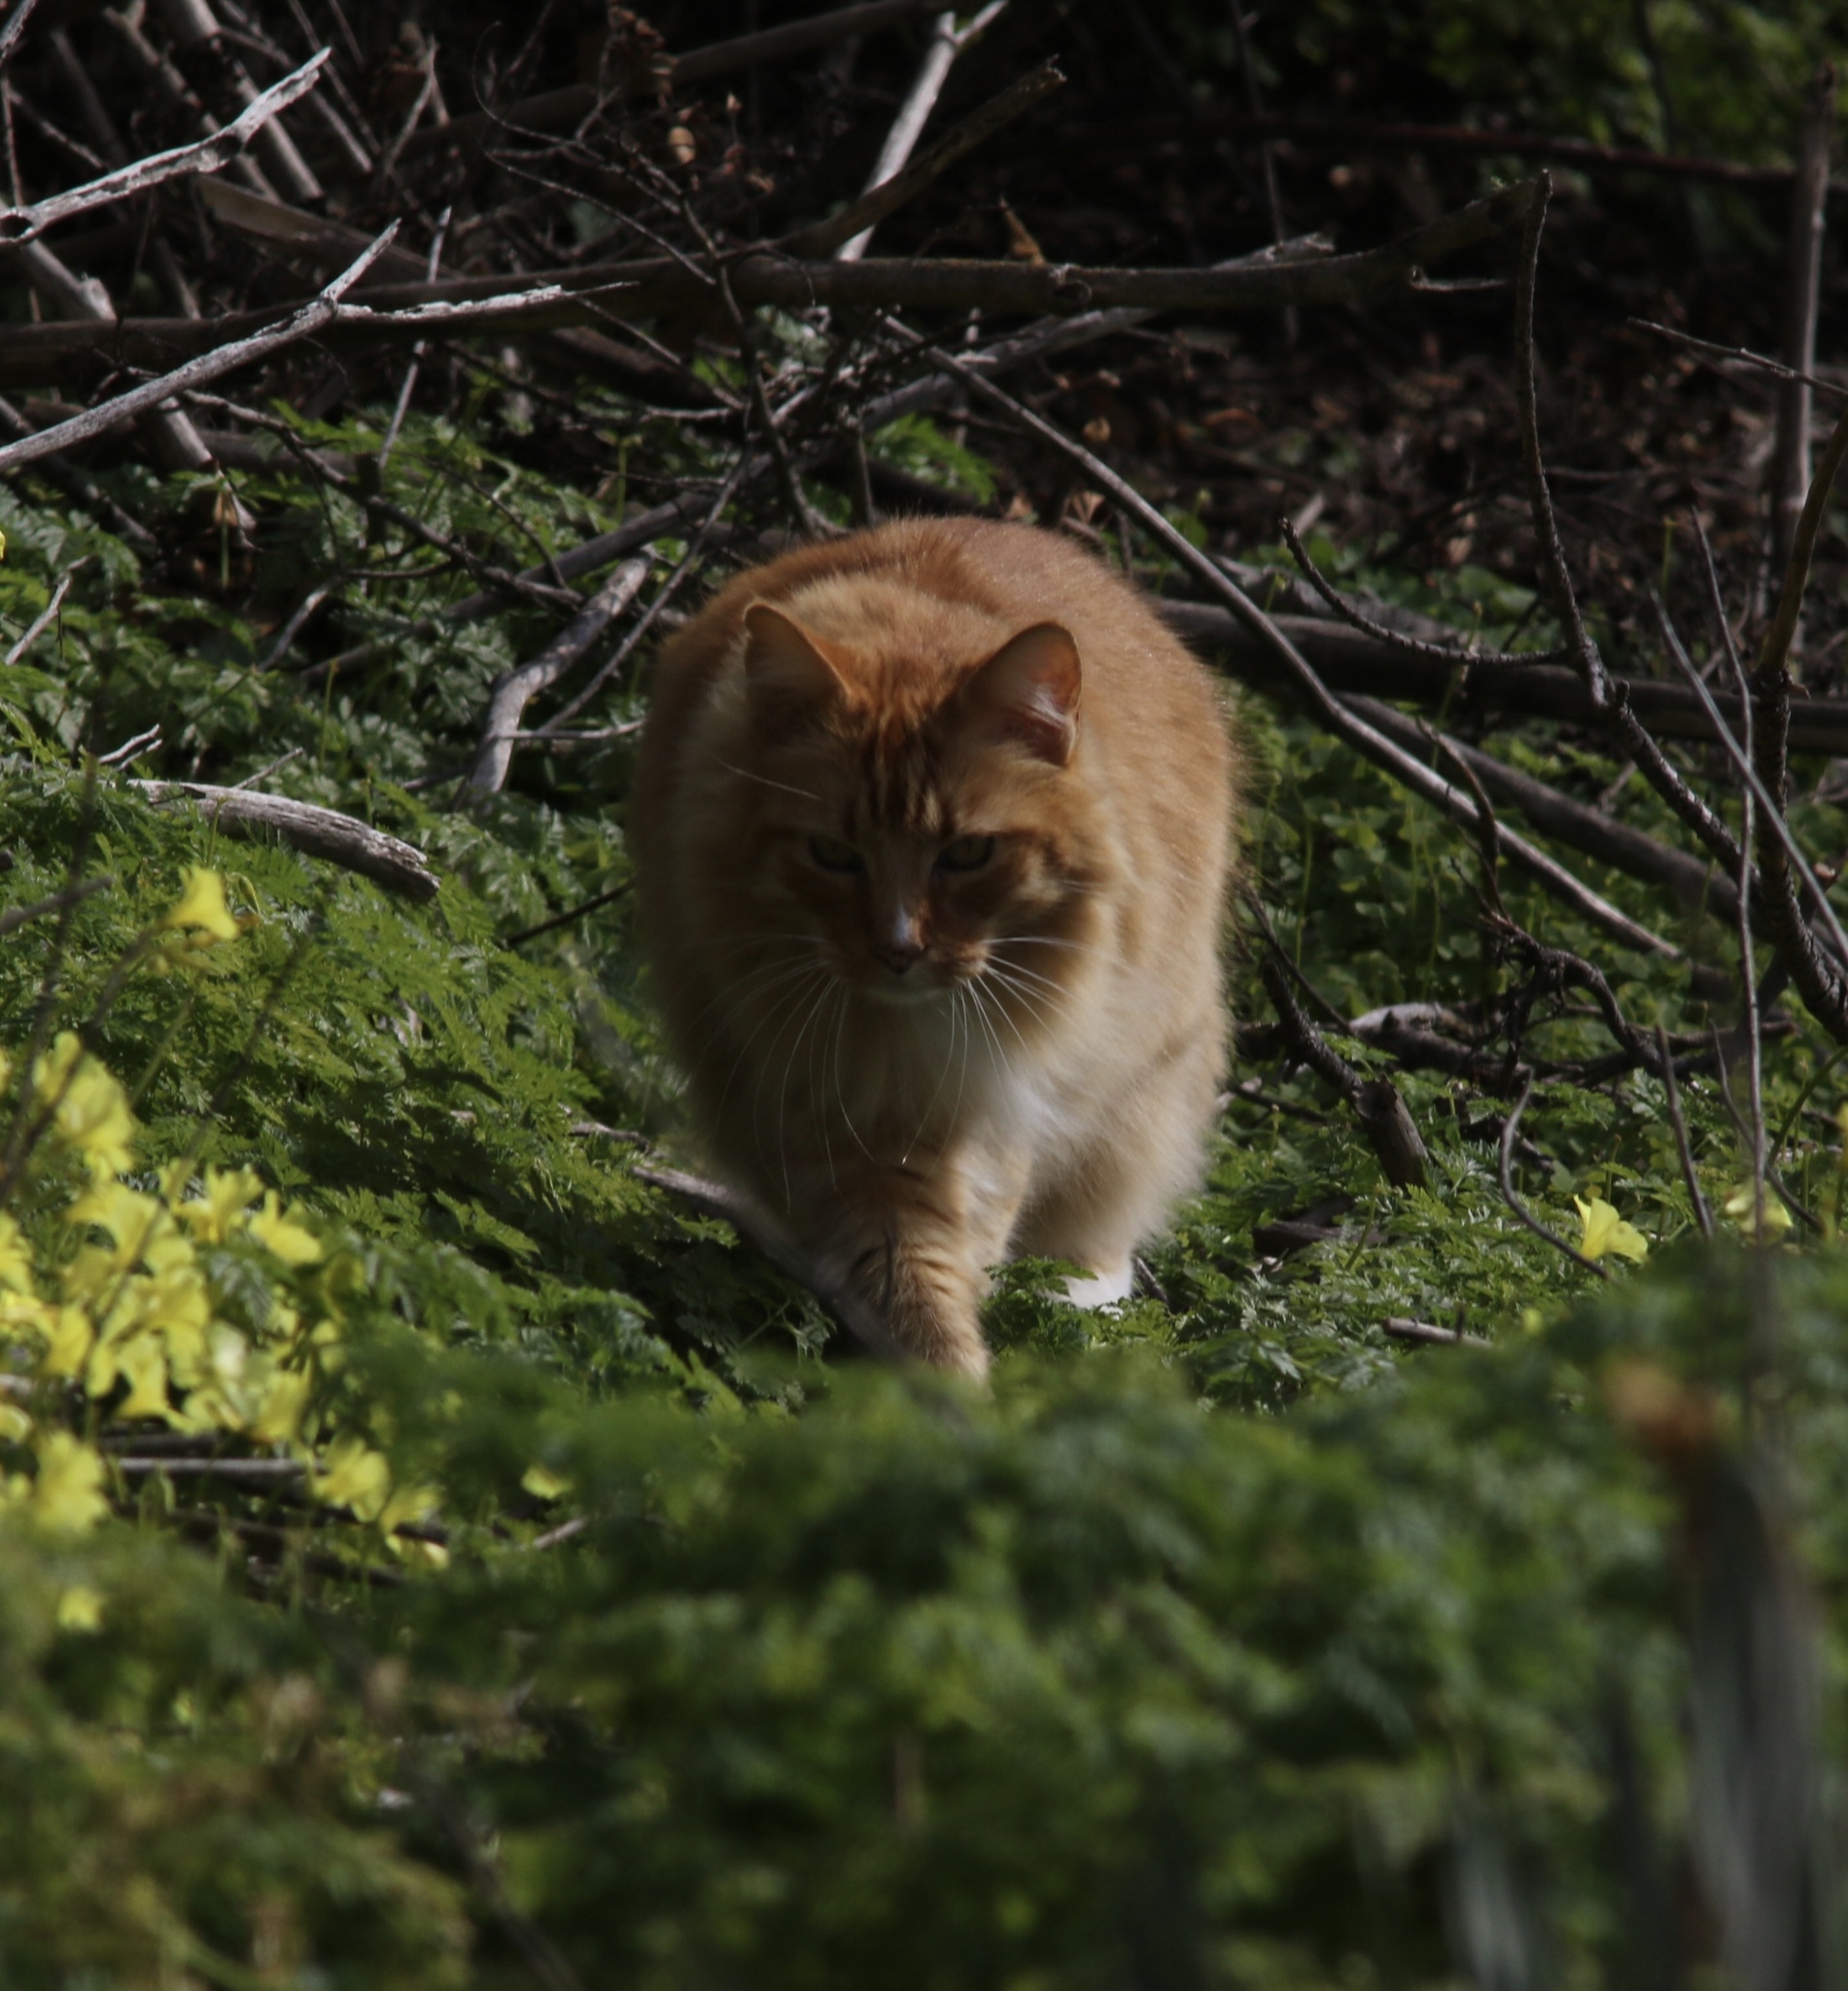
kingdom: Animalia
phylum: Chordata
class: Mammalia
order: Carnivora
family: Felidae
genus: Felis
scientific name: Felis catus
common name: Domestic cat
